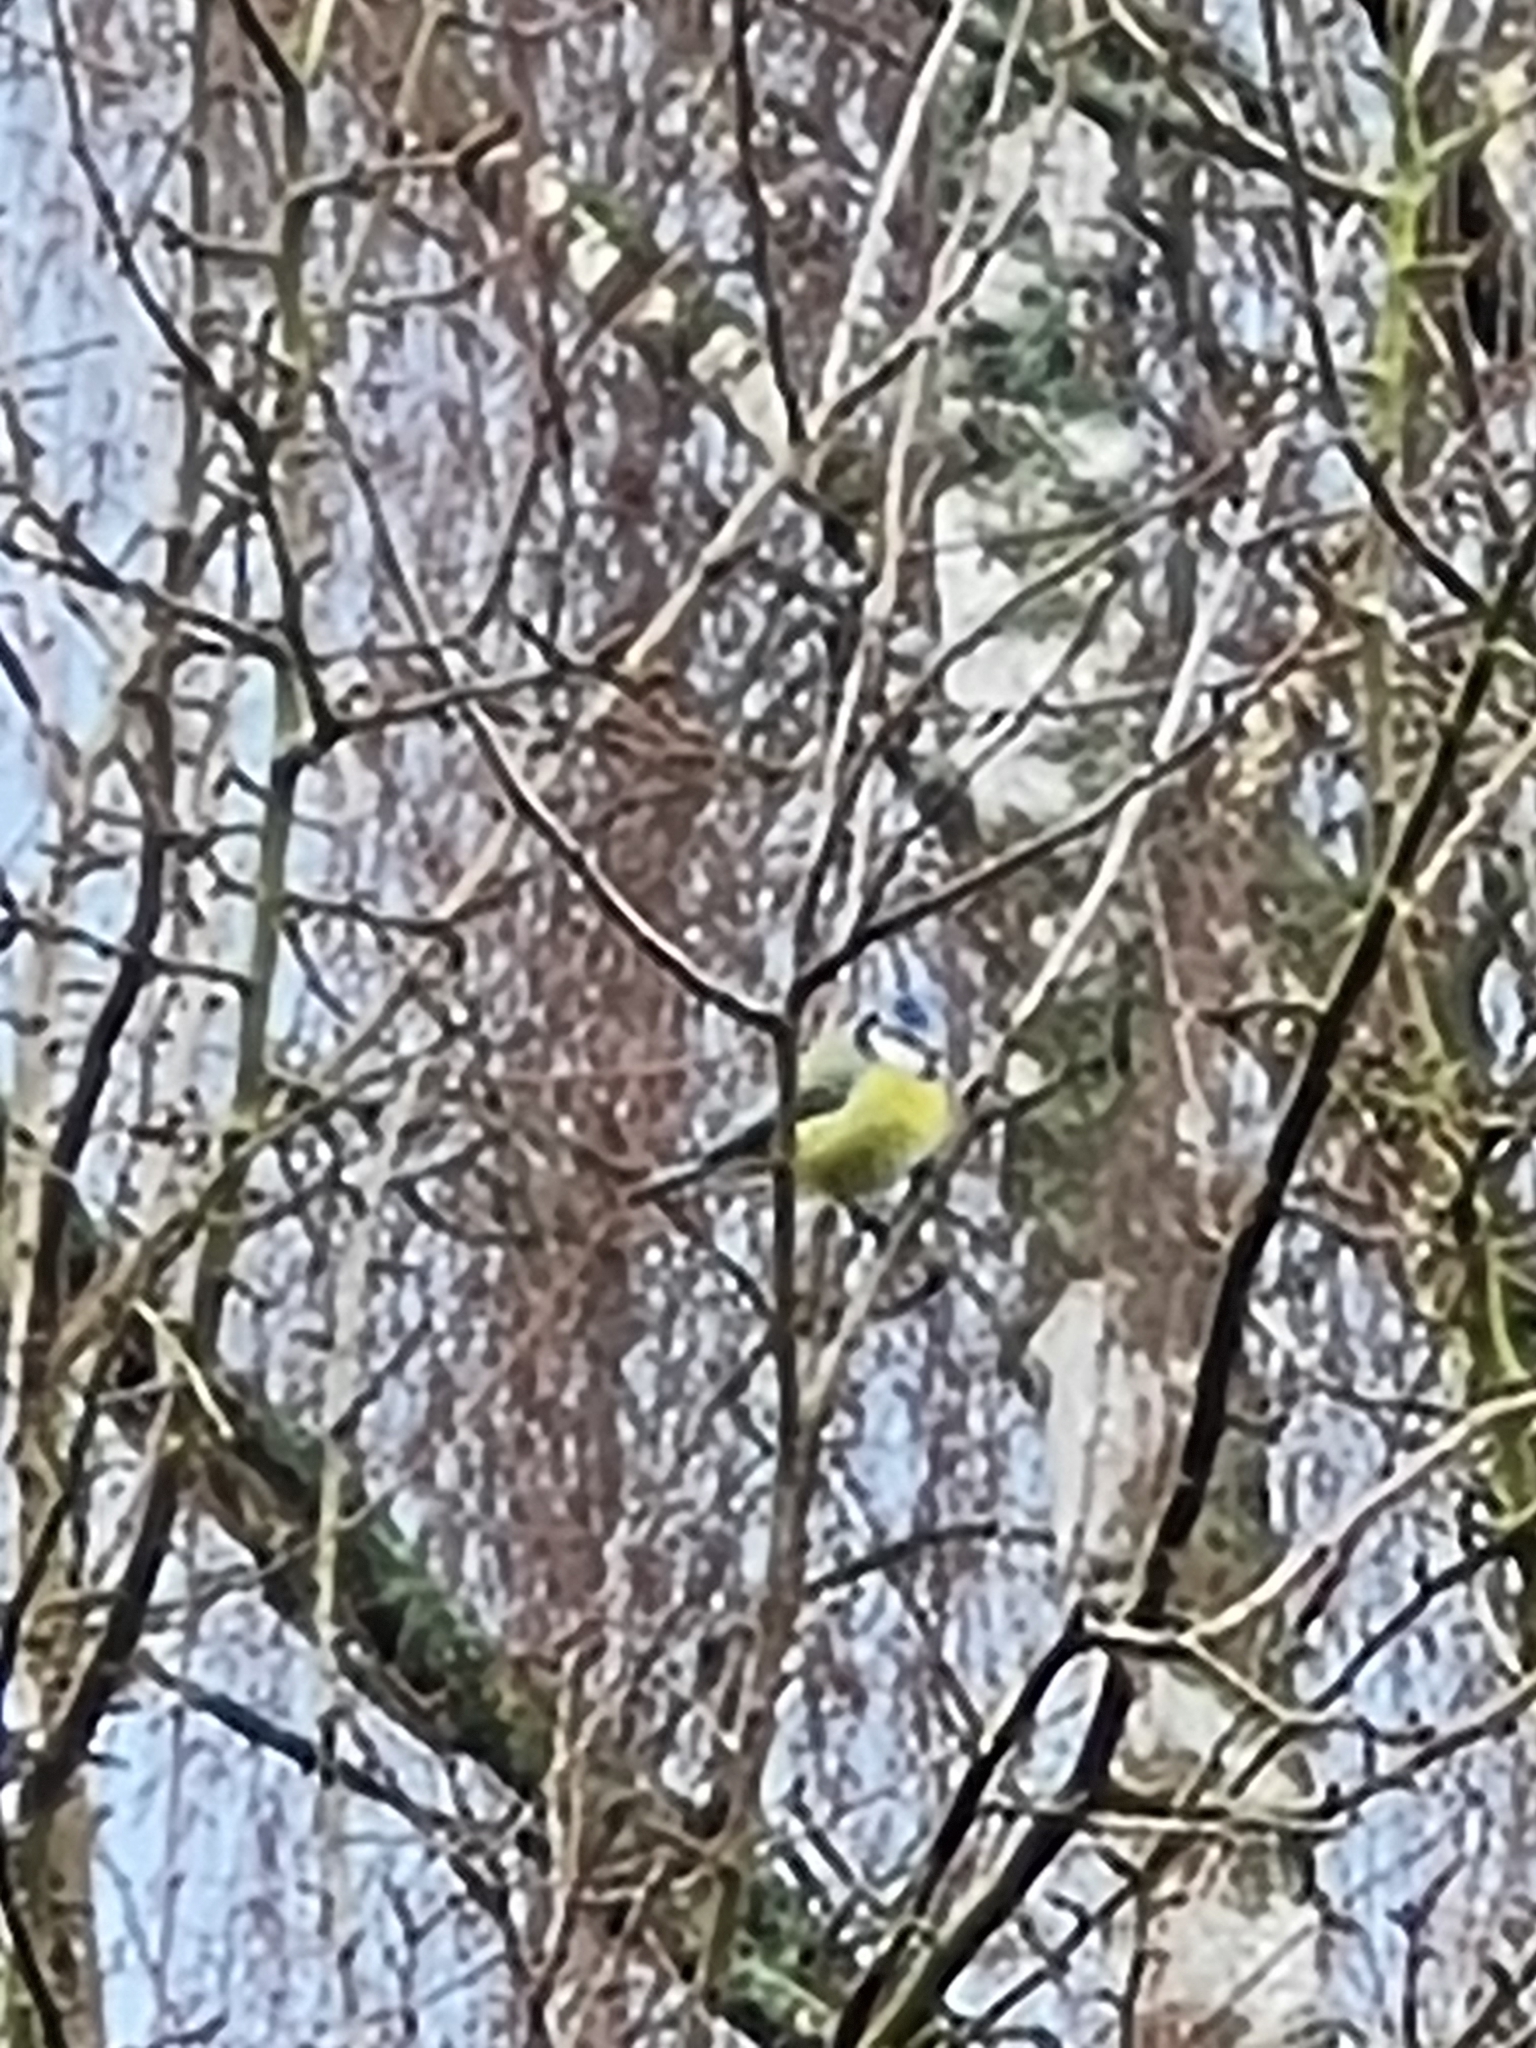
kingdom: Animalia
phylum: Chordata
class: Aves
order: Passeriformes
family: Paridae
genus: Cyanistes
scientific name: Cyanistes caeruleus
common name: Eurasian blue tit
